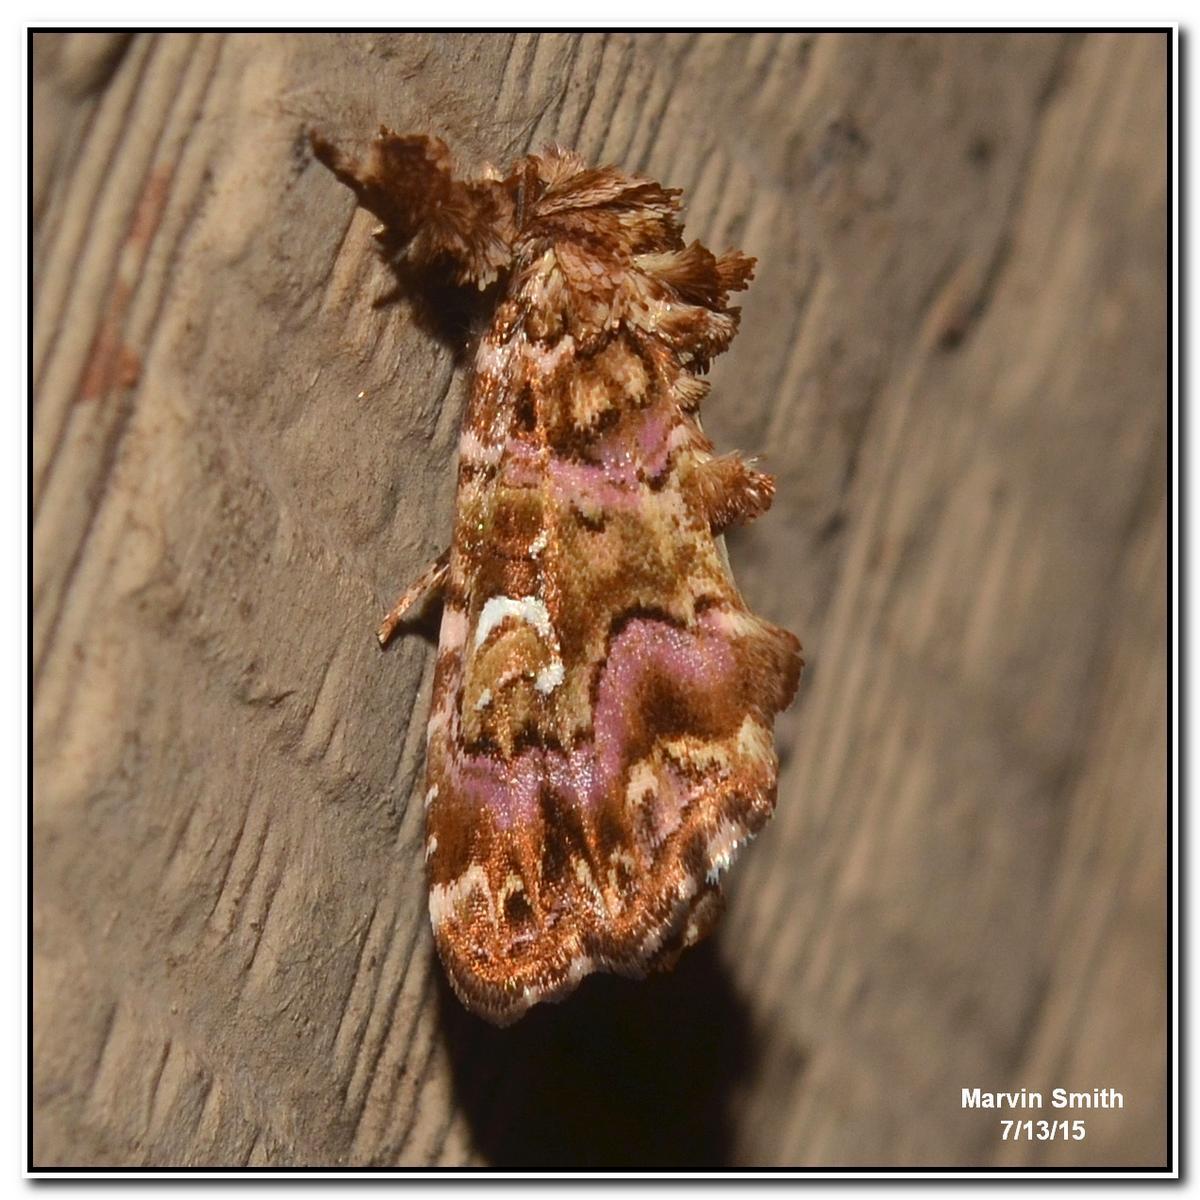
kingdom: Animalia
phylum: Arthropoda
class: Insecta
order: Lepidoptera
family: Noctuidae
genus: Callopistria
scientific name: Callopistria mollissima
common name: Pink-shaded fern moth
